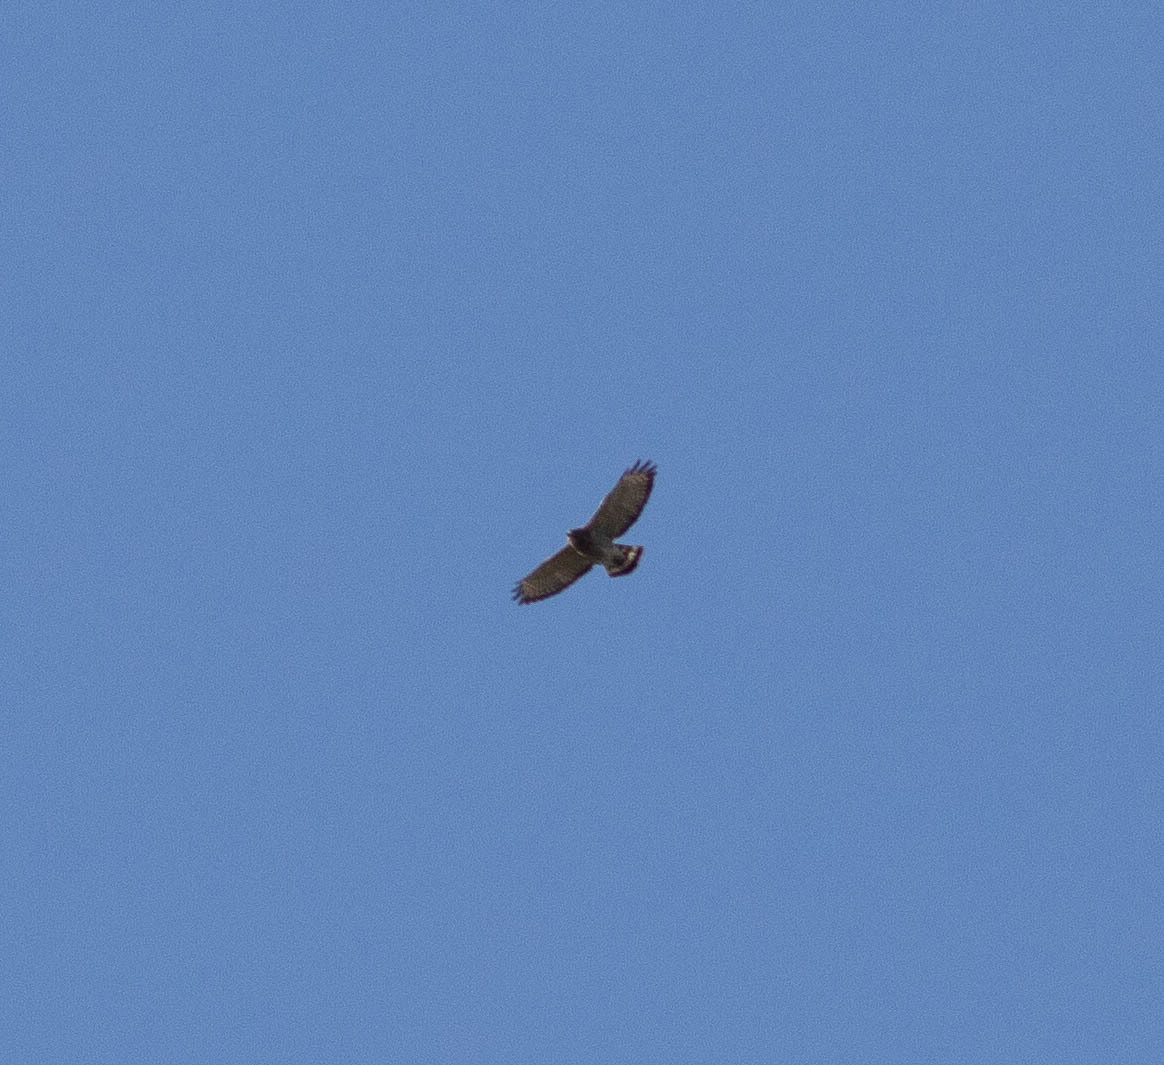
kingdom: Animalia
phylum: Chordata
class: Aves
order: Accipitriformes
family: Accipitridae
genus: Buteo
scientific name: Buteo platypterus
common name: Broad-winged hawk
